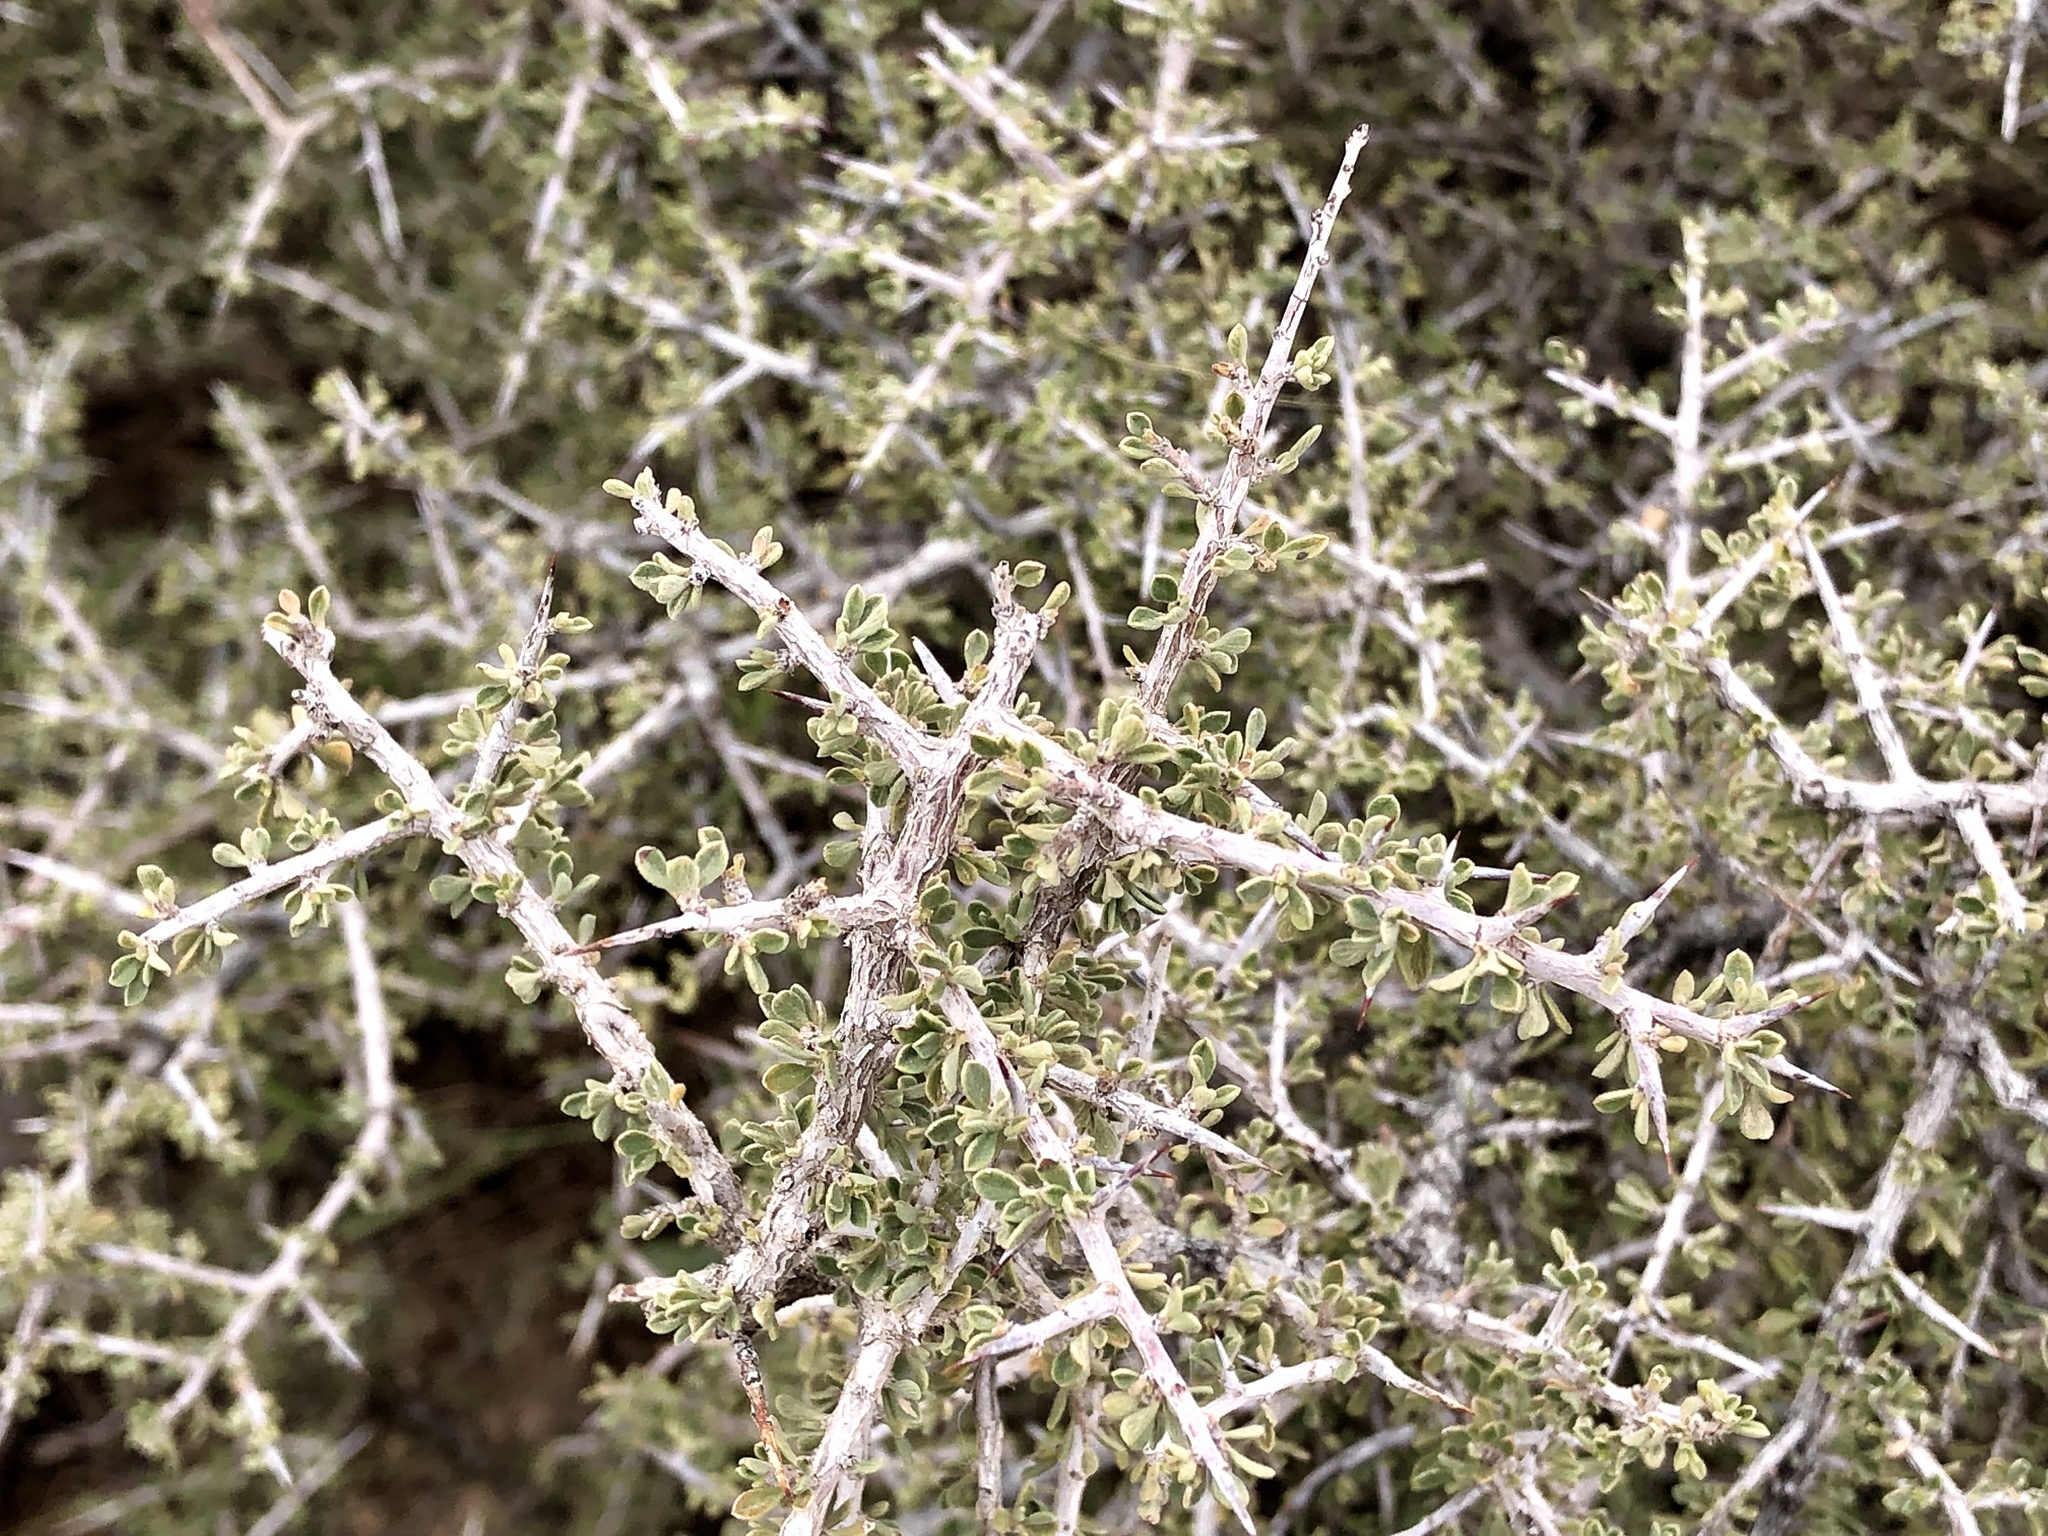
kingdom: Plantae
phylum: Tracheophyta
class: Magnoliopsida
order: Rosales
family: Rhamnaceae
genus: Condalia
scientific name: Condalia warnockii
